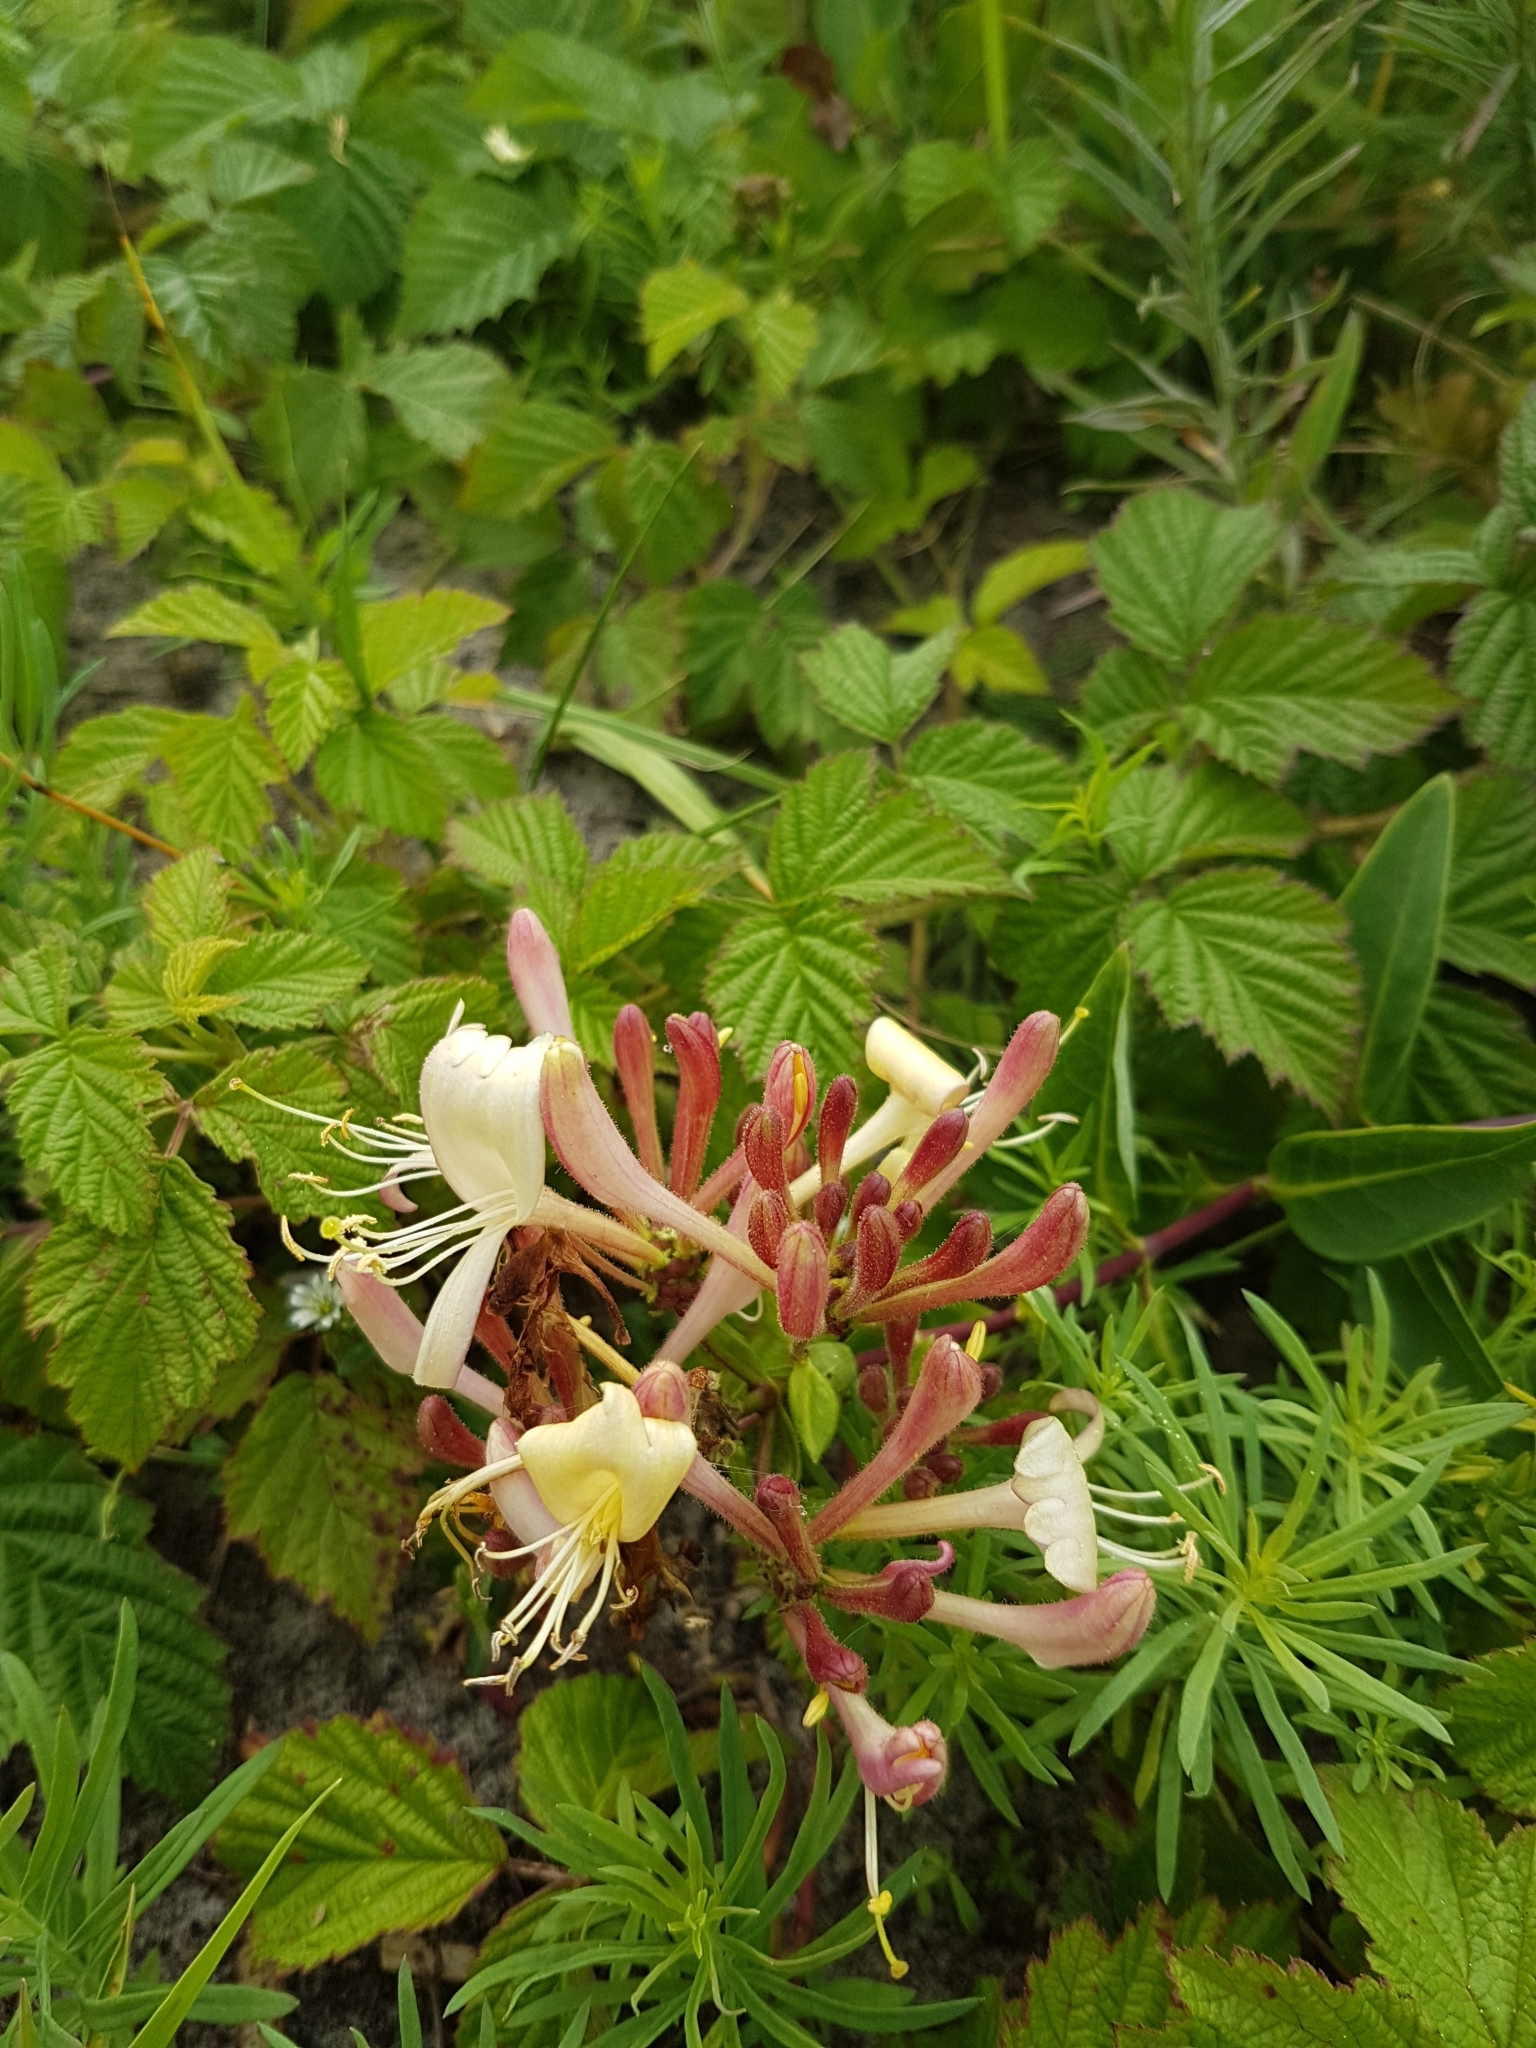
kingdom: Plantae
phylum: Tracheophyta
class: Magnoliopsida
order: Dipsacales
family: Caprifoliaceae
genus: Lonicera
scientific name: Lonicera periclymenum
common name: European honeysuckle
